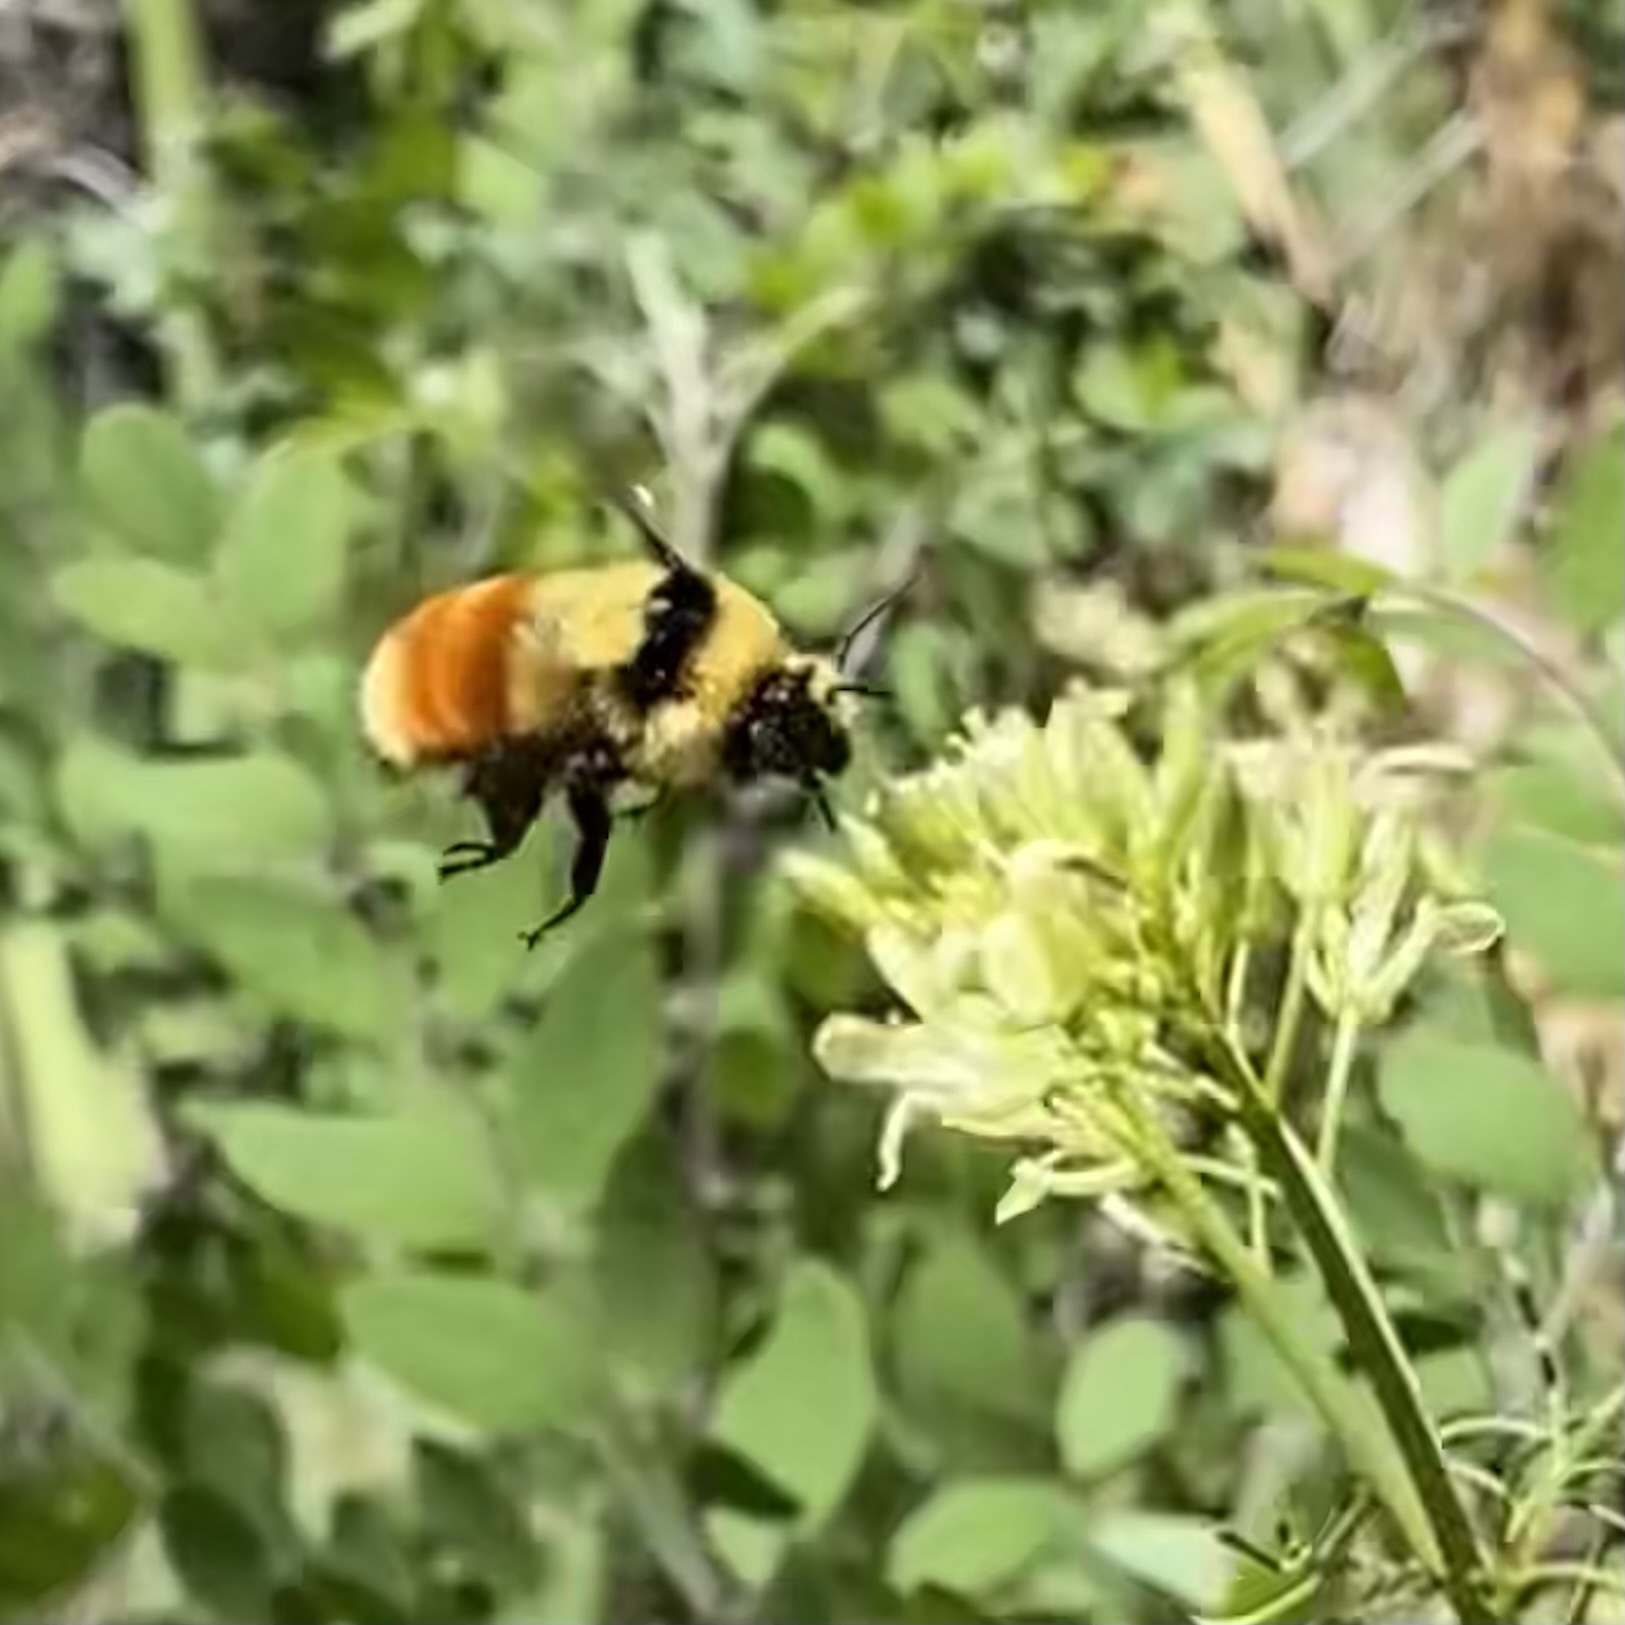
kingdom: Animalia
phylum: Arthropoda
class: Insecta
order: Hymenoptera
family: Apidae
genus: Bombus
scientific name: Bombus huntii
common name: Hunt bumble bee
